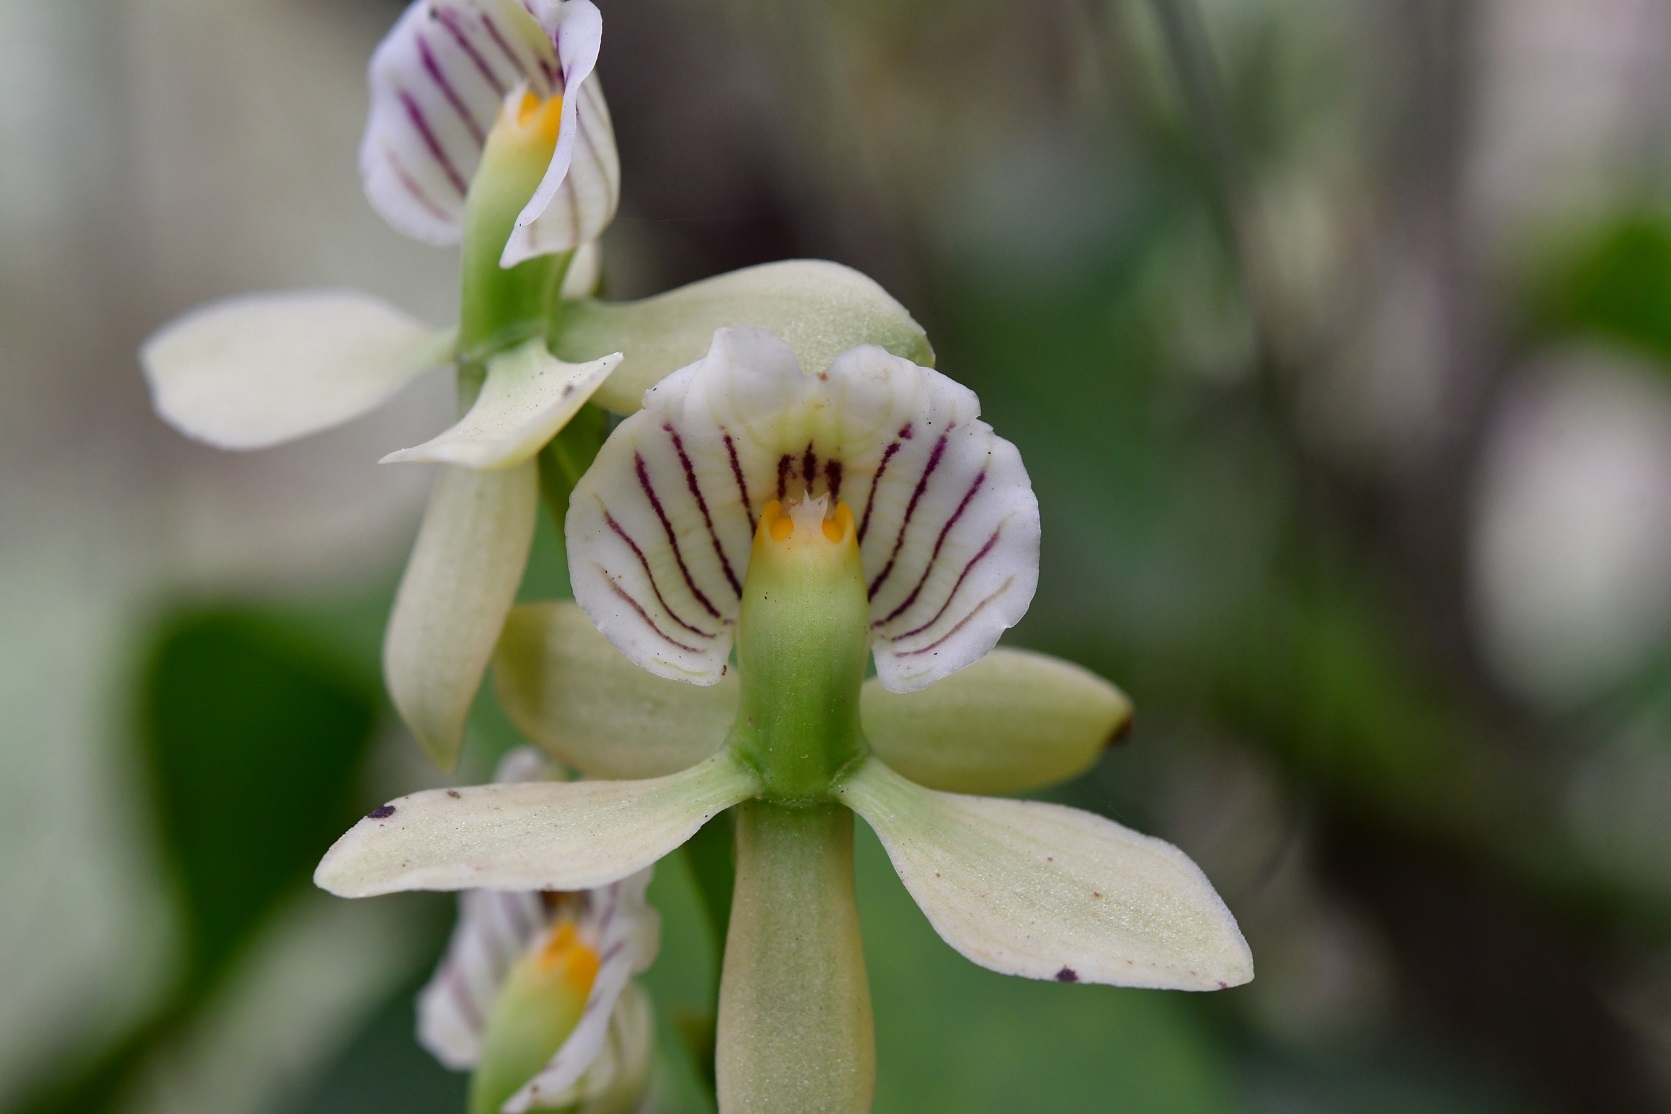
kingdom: Plantae
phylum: Tracheophyta
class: Liliopsida
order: Asparagales
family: Orchidaceae
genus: Prosthechea
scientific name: Prosthechea radiata
